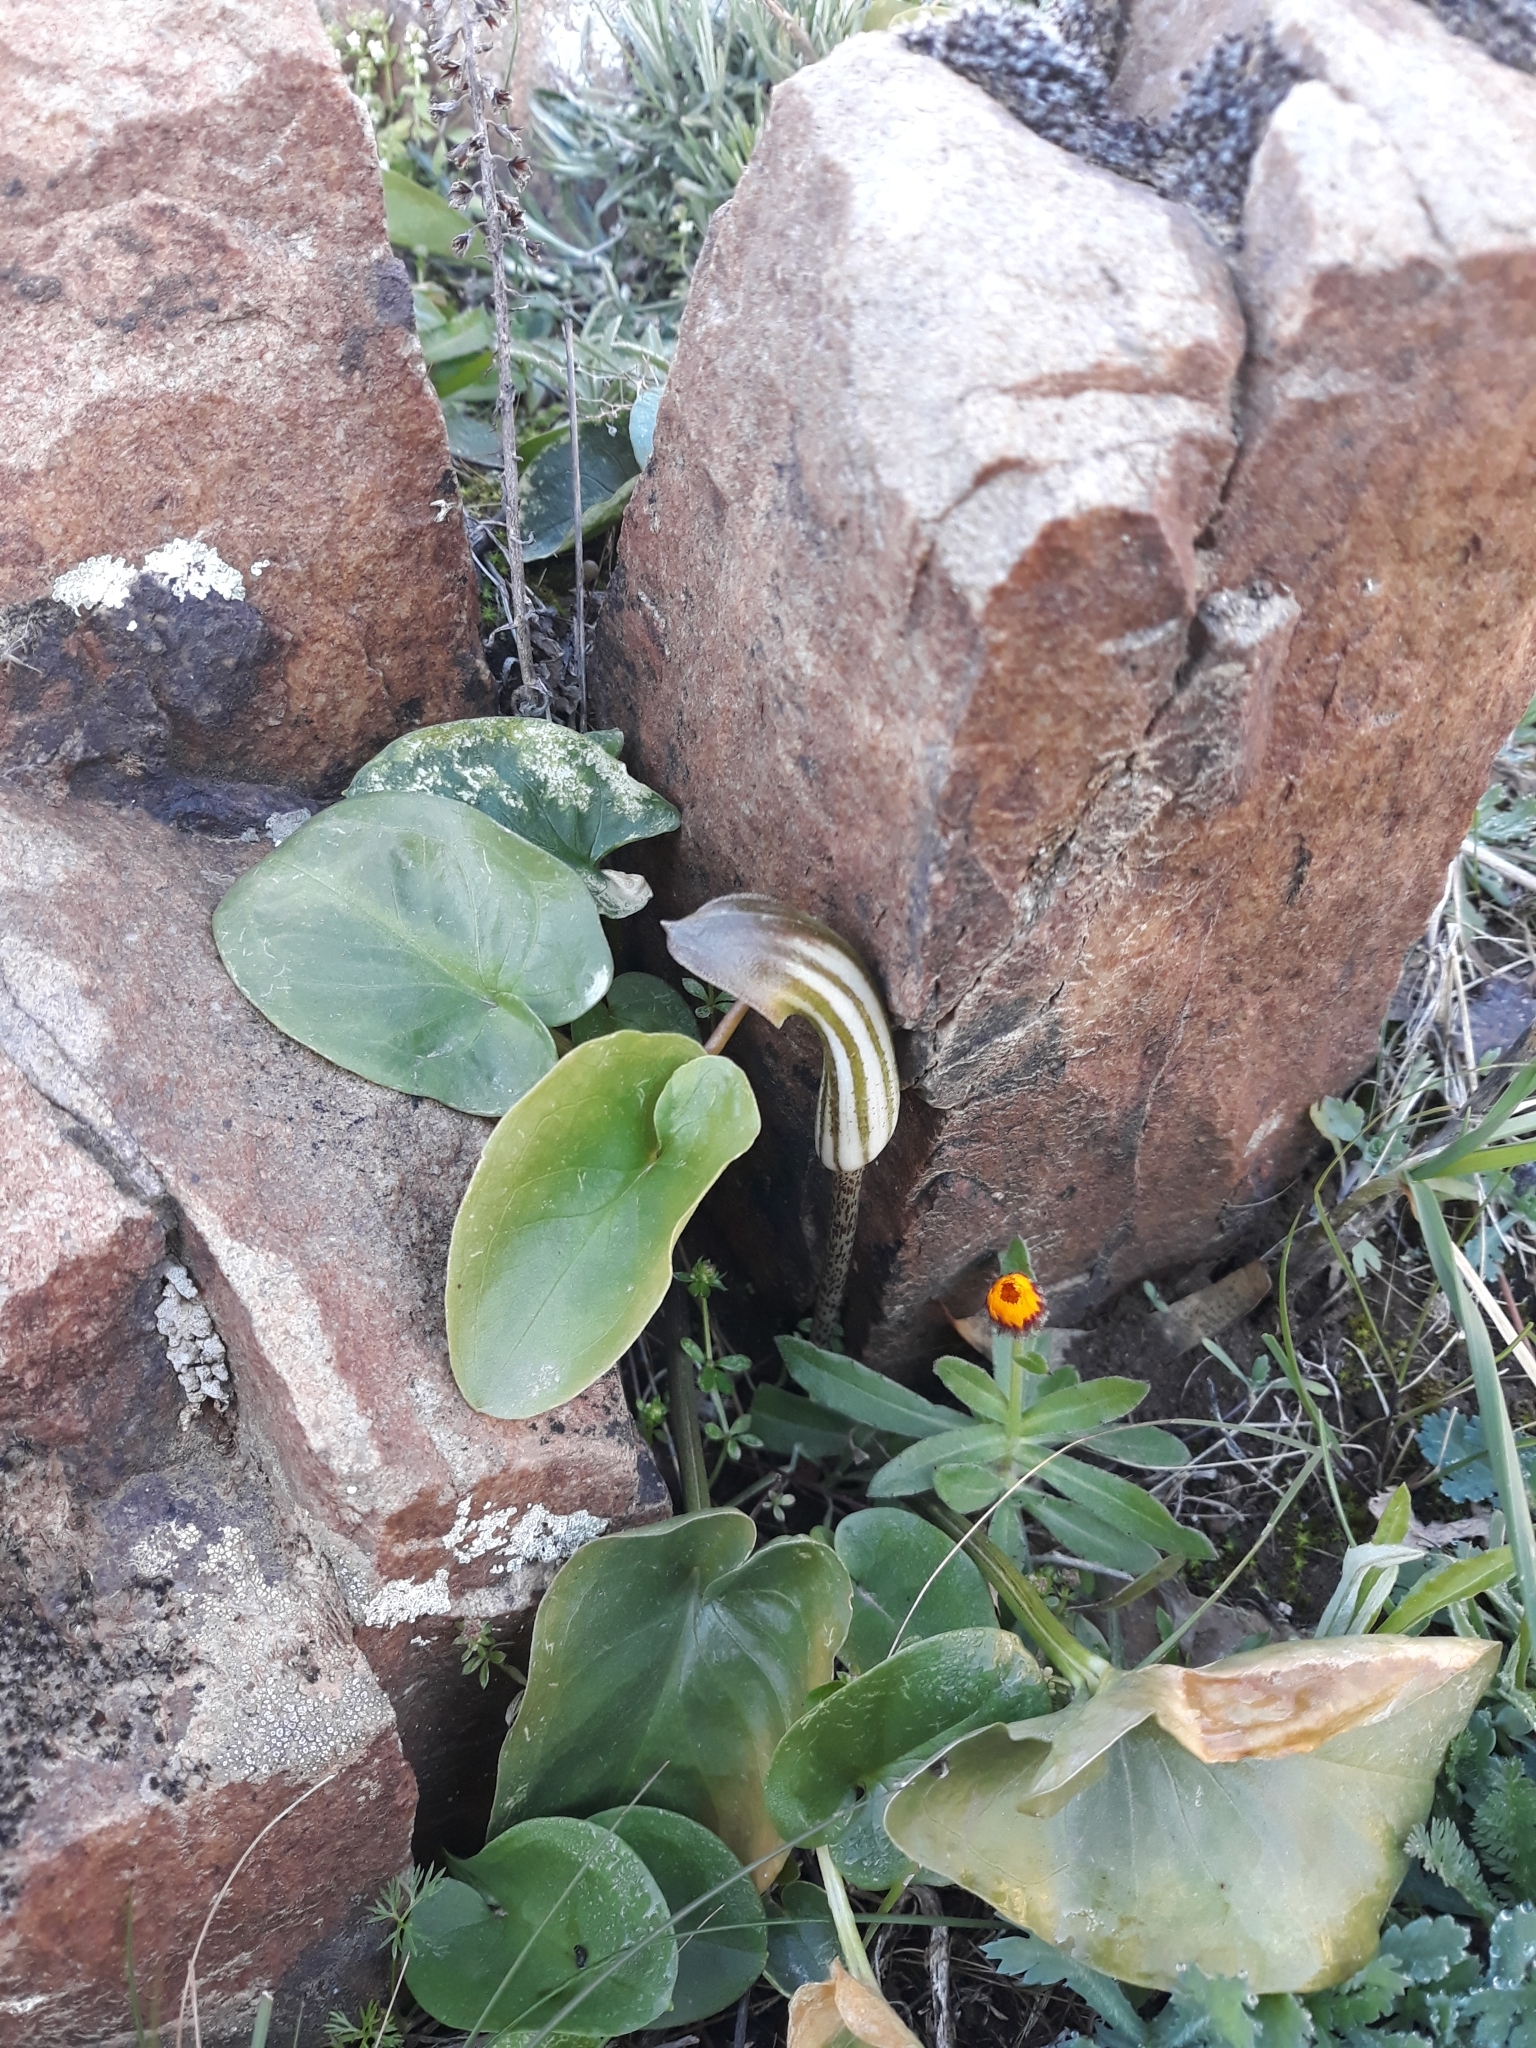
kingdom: Plantae
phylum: Tracheophyta
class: Liliopsida
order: Alismatales
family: Araceae
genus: Arisarum
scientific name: Arisarum vulgare
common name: Common arisarum
